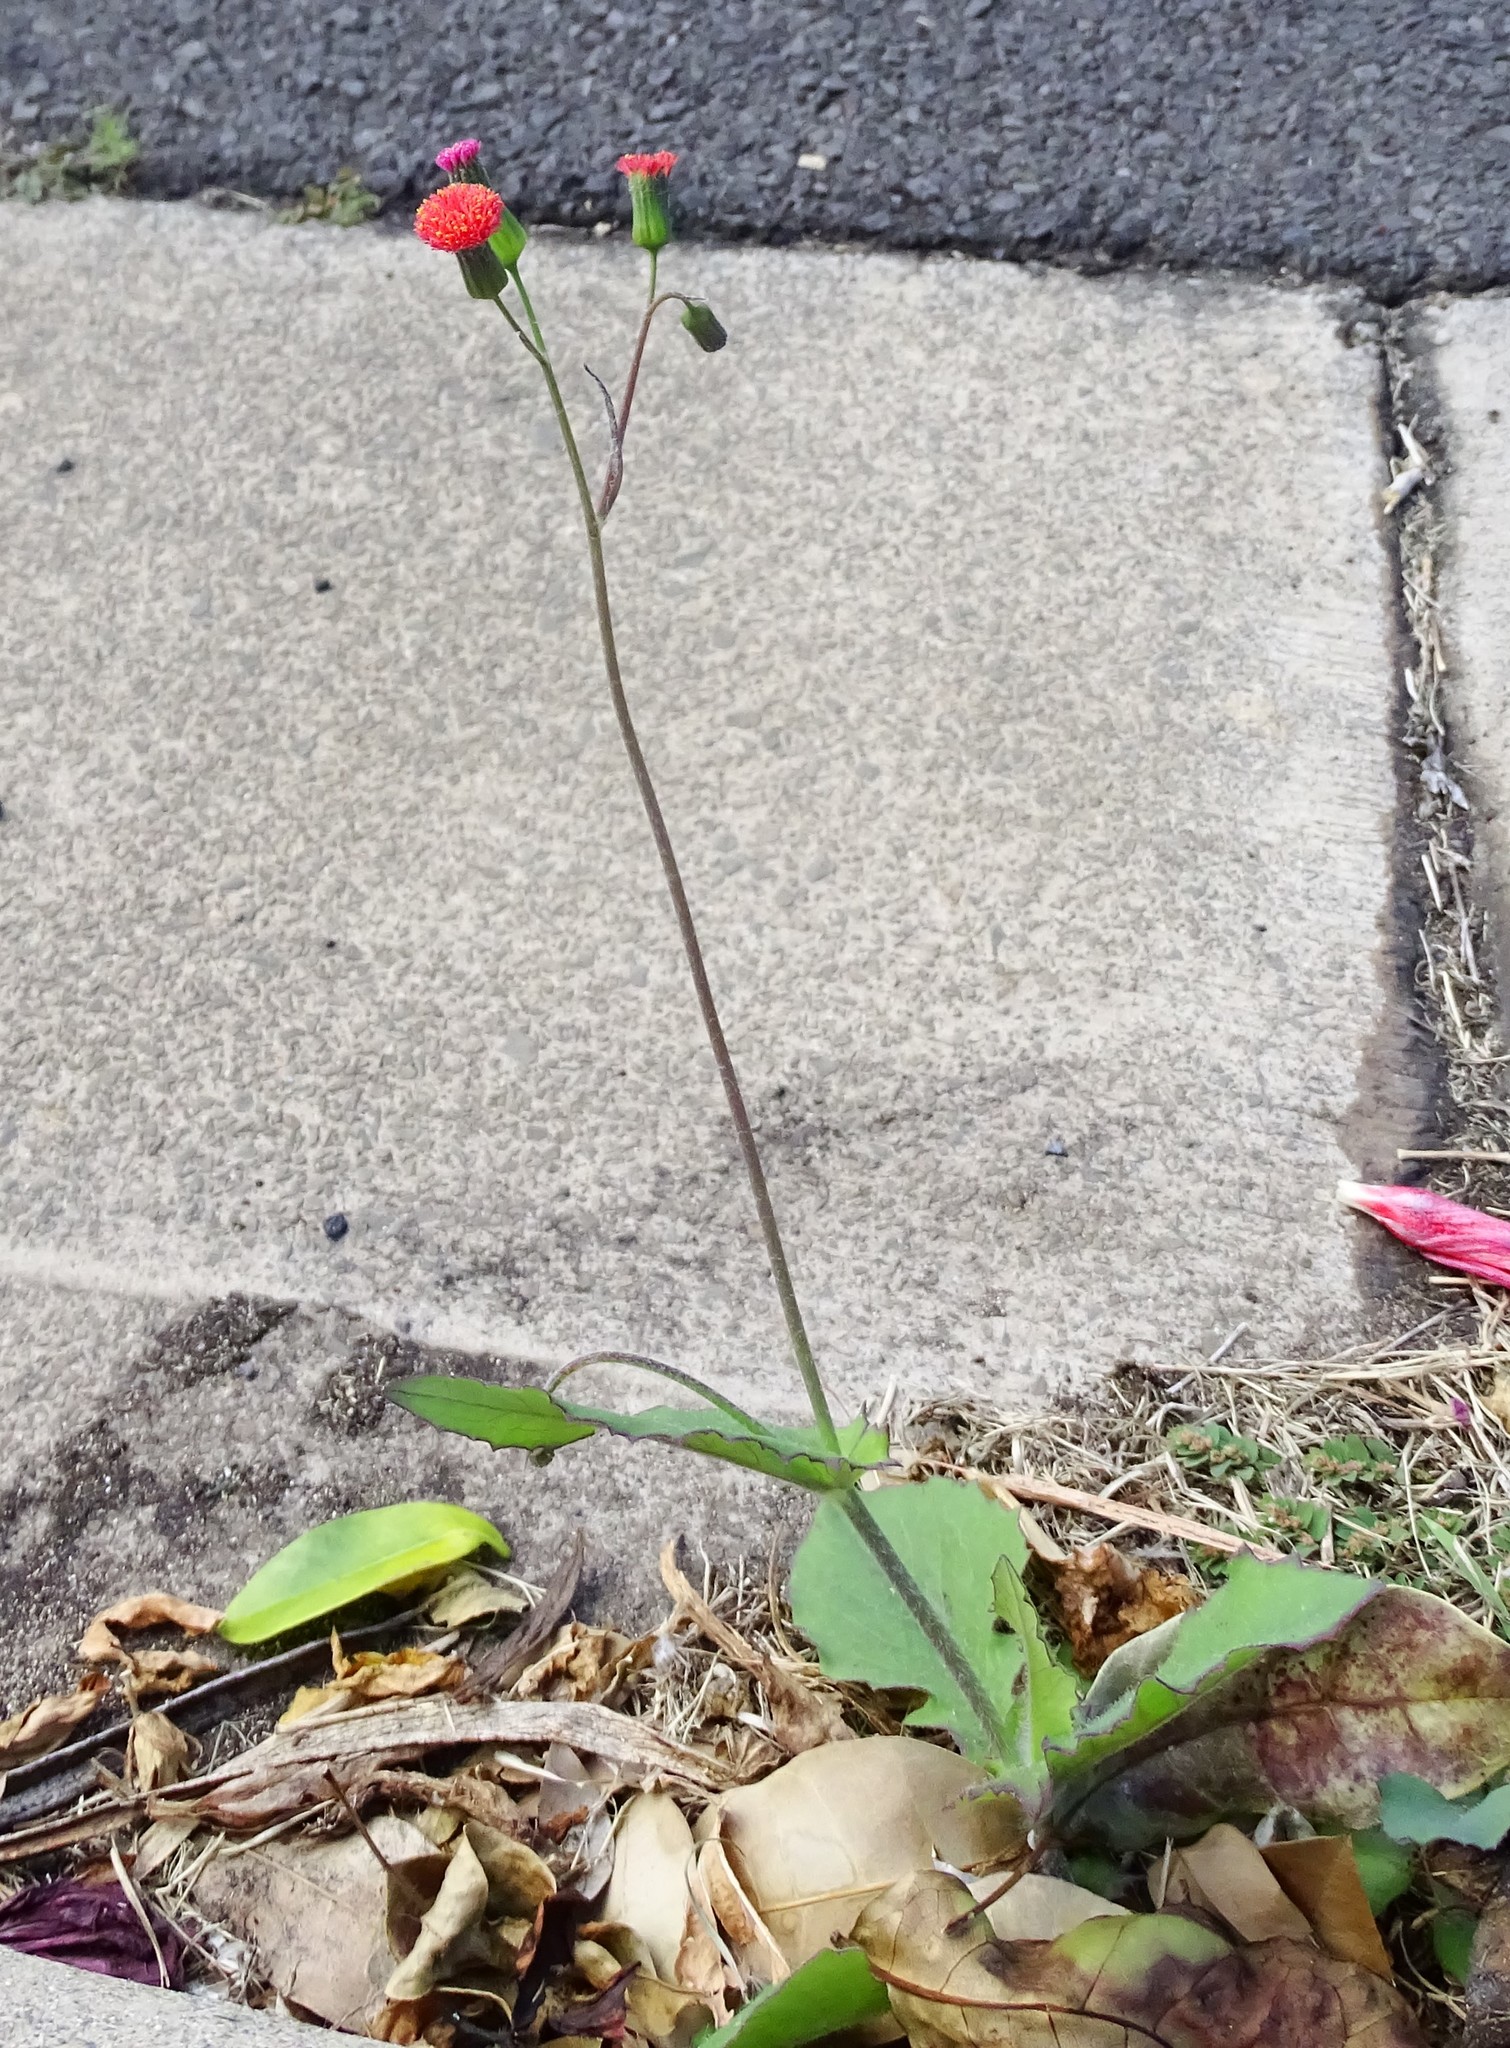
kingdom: Plantae
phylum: Tracheophyta
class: Magnoliopsida
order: Asterales
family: Asteraceae
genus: Emilia
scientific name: Emilia fosbergii
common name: Florida tasselflower
